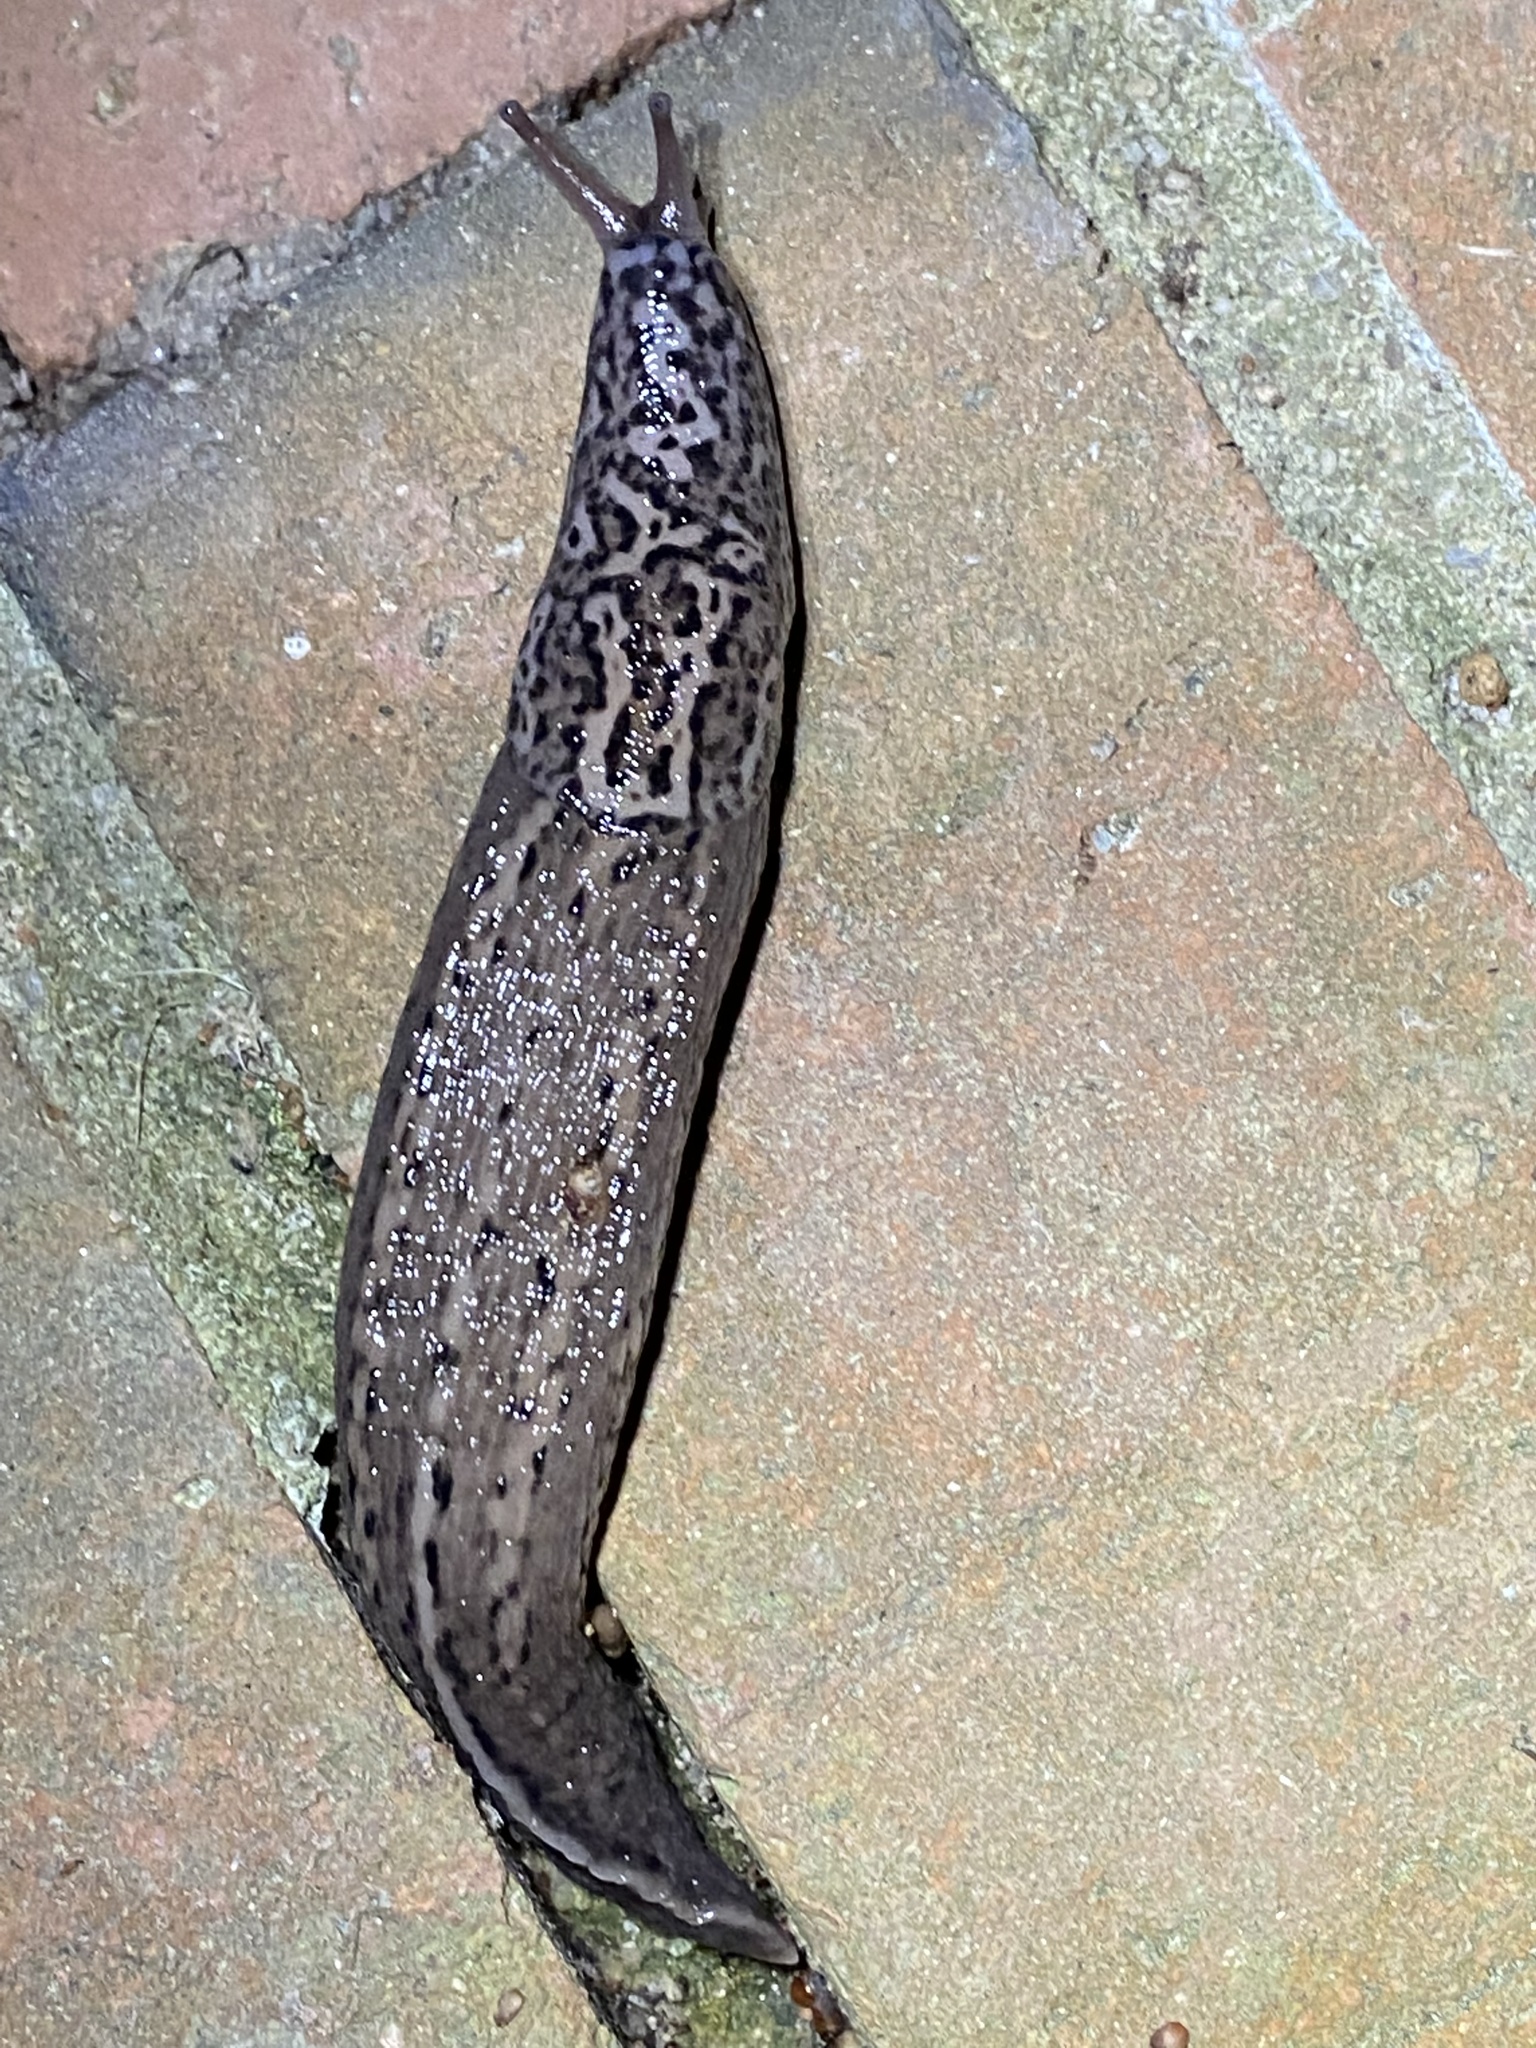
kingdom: Animalia
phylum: Mollusca
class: Gastropoda
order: Stylommatophora
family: Limacidae
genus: Limax
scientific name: Limax maximus
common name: Great grey slug
